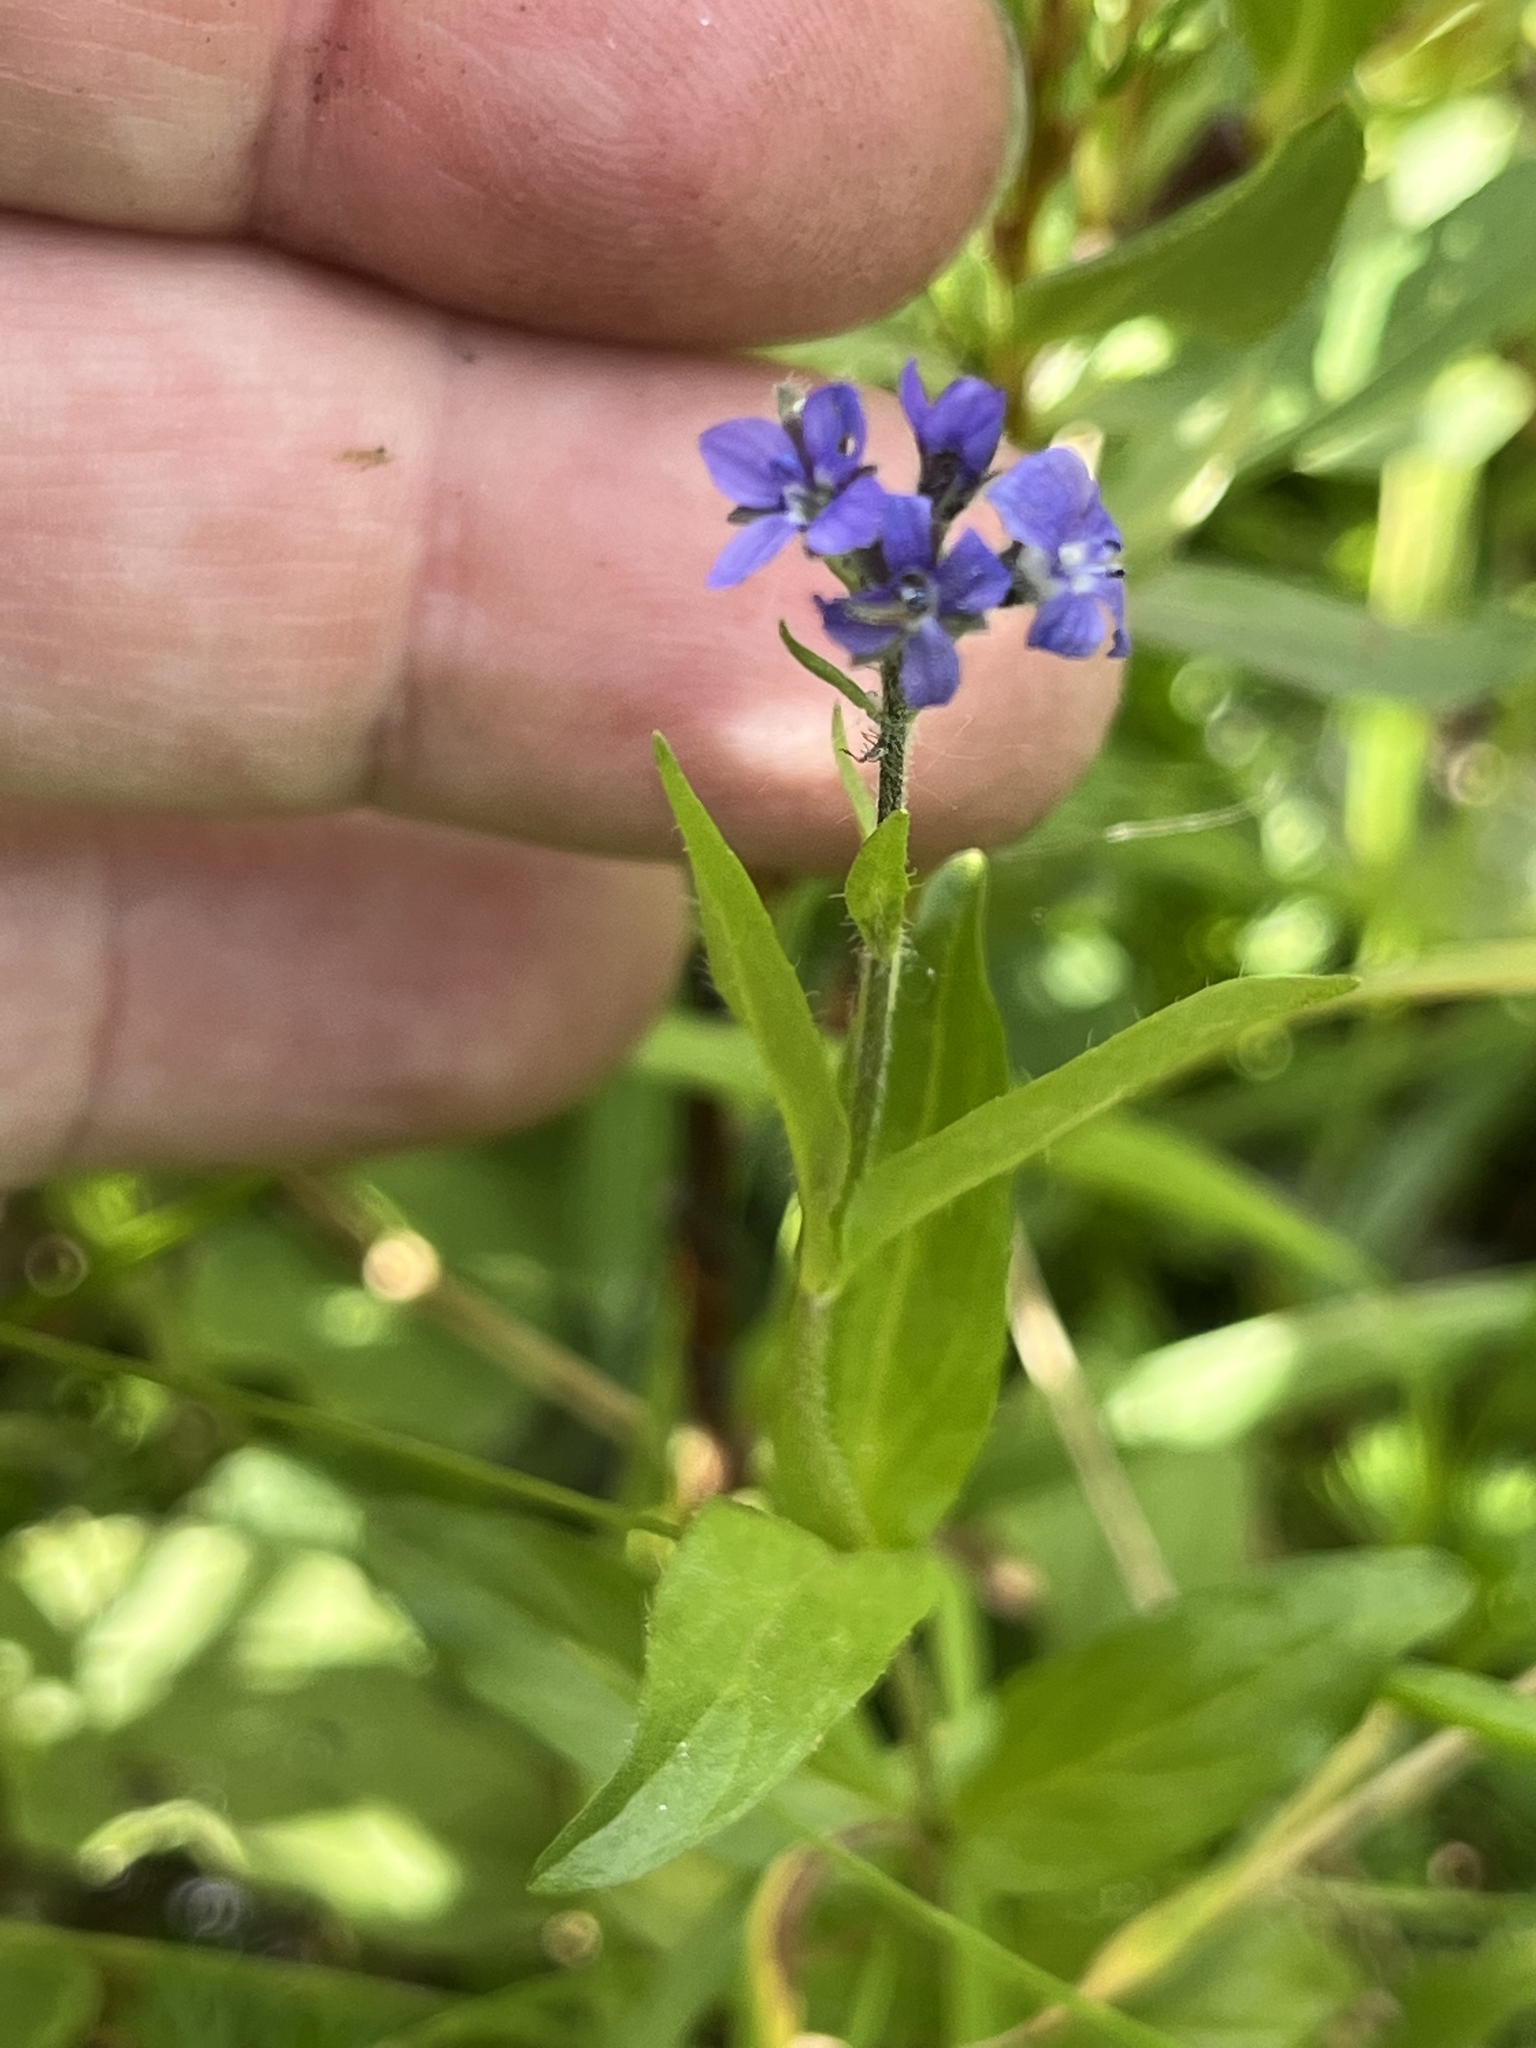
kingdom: Plantae
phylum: Tracheophyta
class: Magnoliopsida
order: Lamiales
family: Plantaginaceae
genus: Veronica
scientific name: Veronica wormskjoldii
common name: American alpine speedwell
